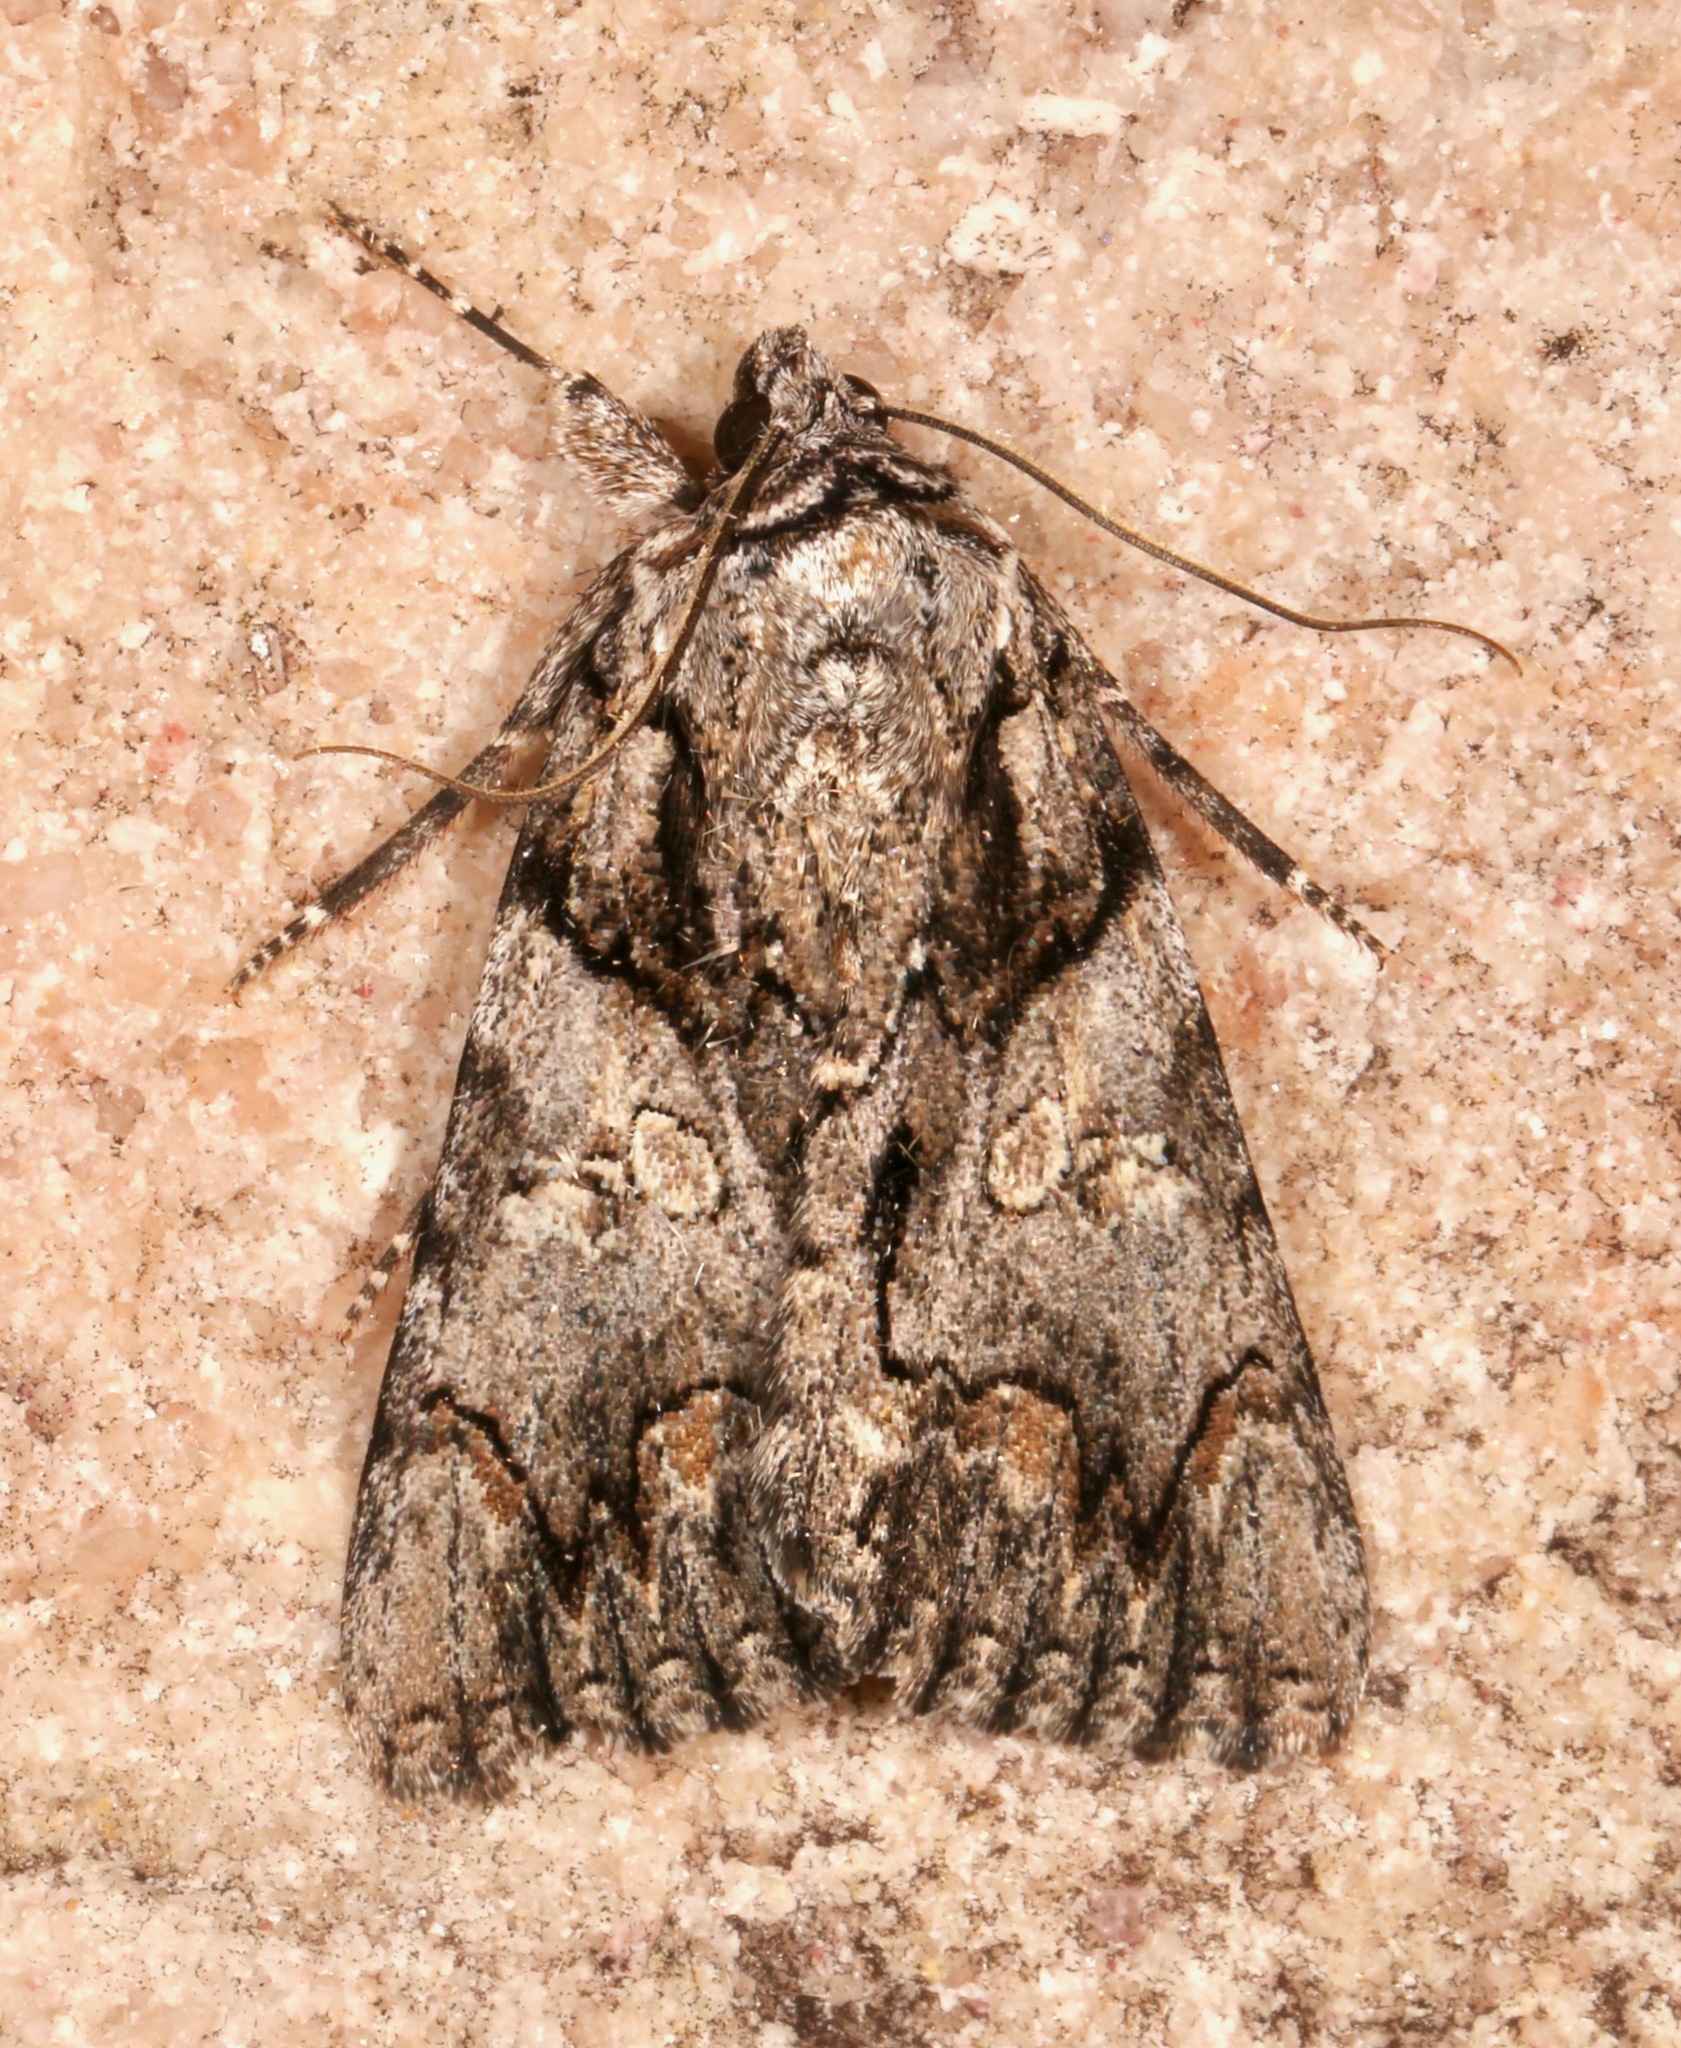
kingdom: Animalia
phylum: Arthropoda
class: Insecta
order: Lepidoptera
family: Erebidae
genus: Catocala
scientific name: Catocala verrilliana
